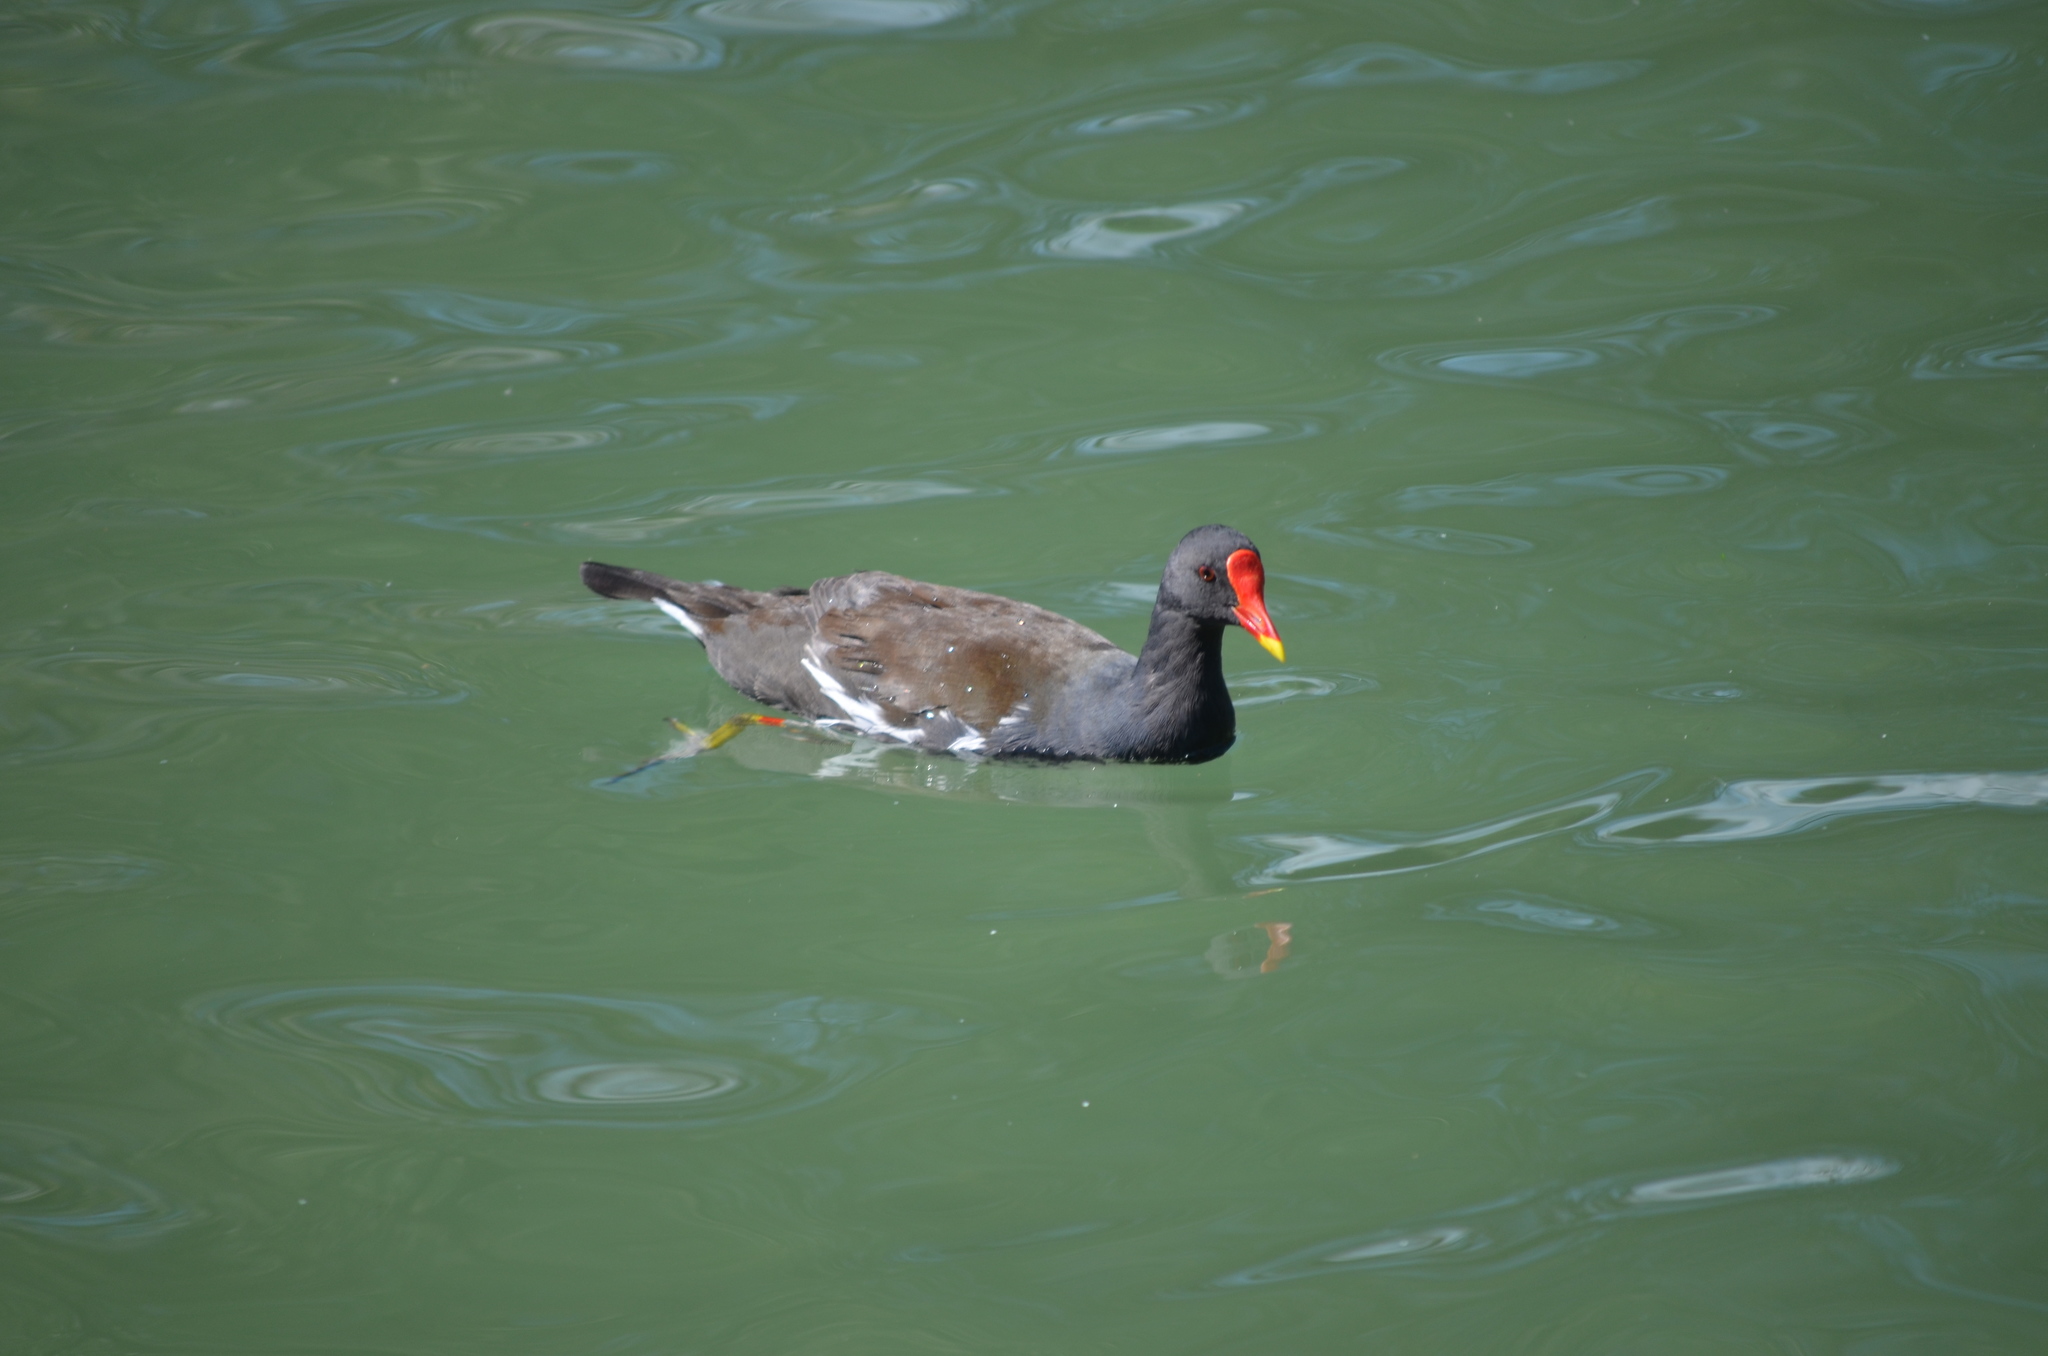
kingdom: Animalia
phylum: Chordata
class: Aves
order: Gruiformes
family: Rallidae
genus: Gallinula
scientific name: Gallinula chloropus
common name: Common moorhen
